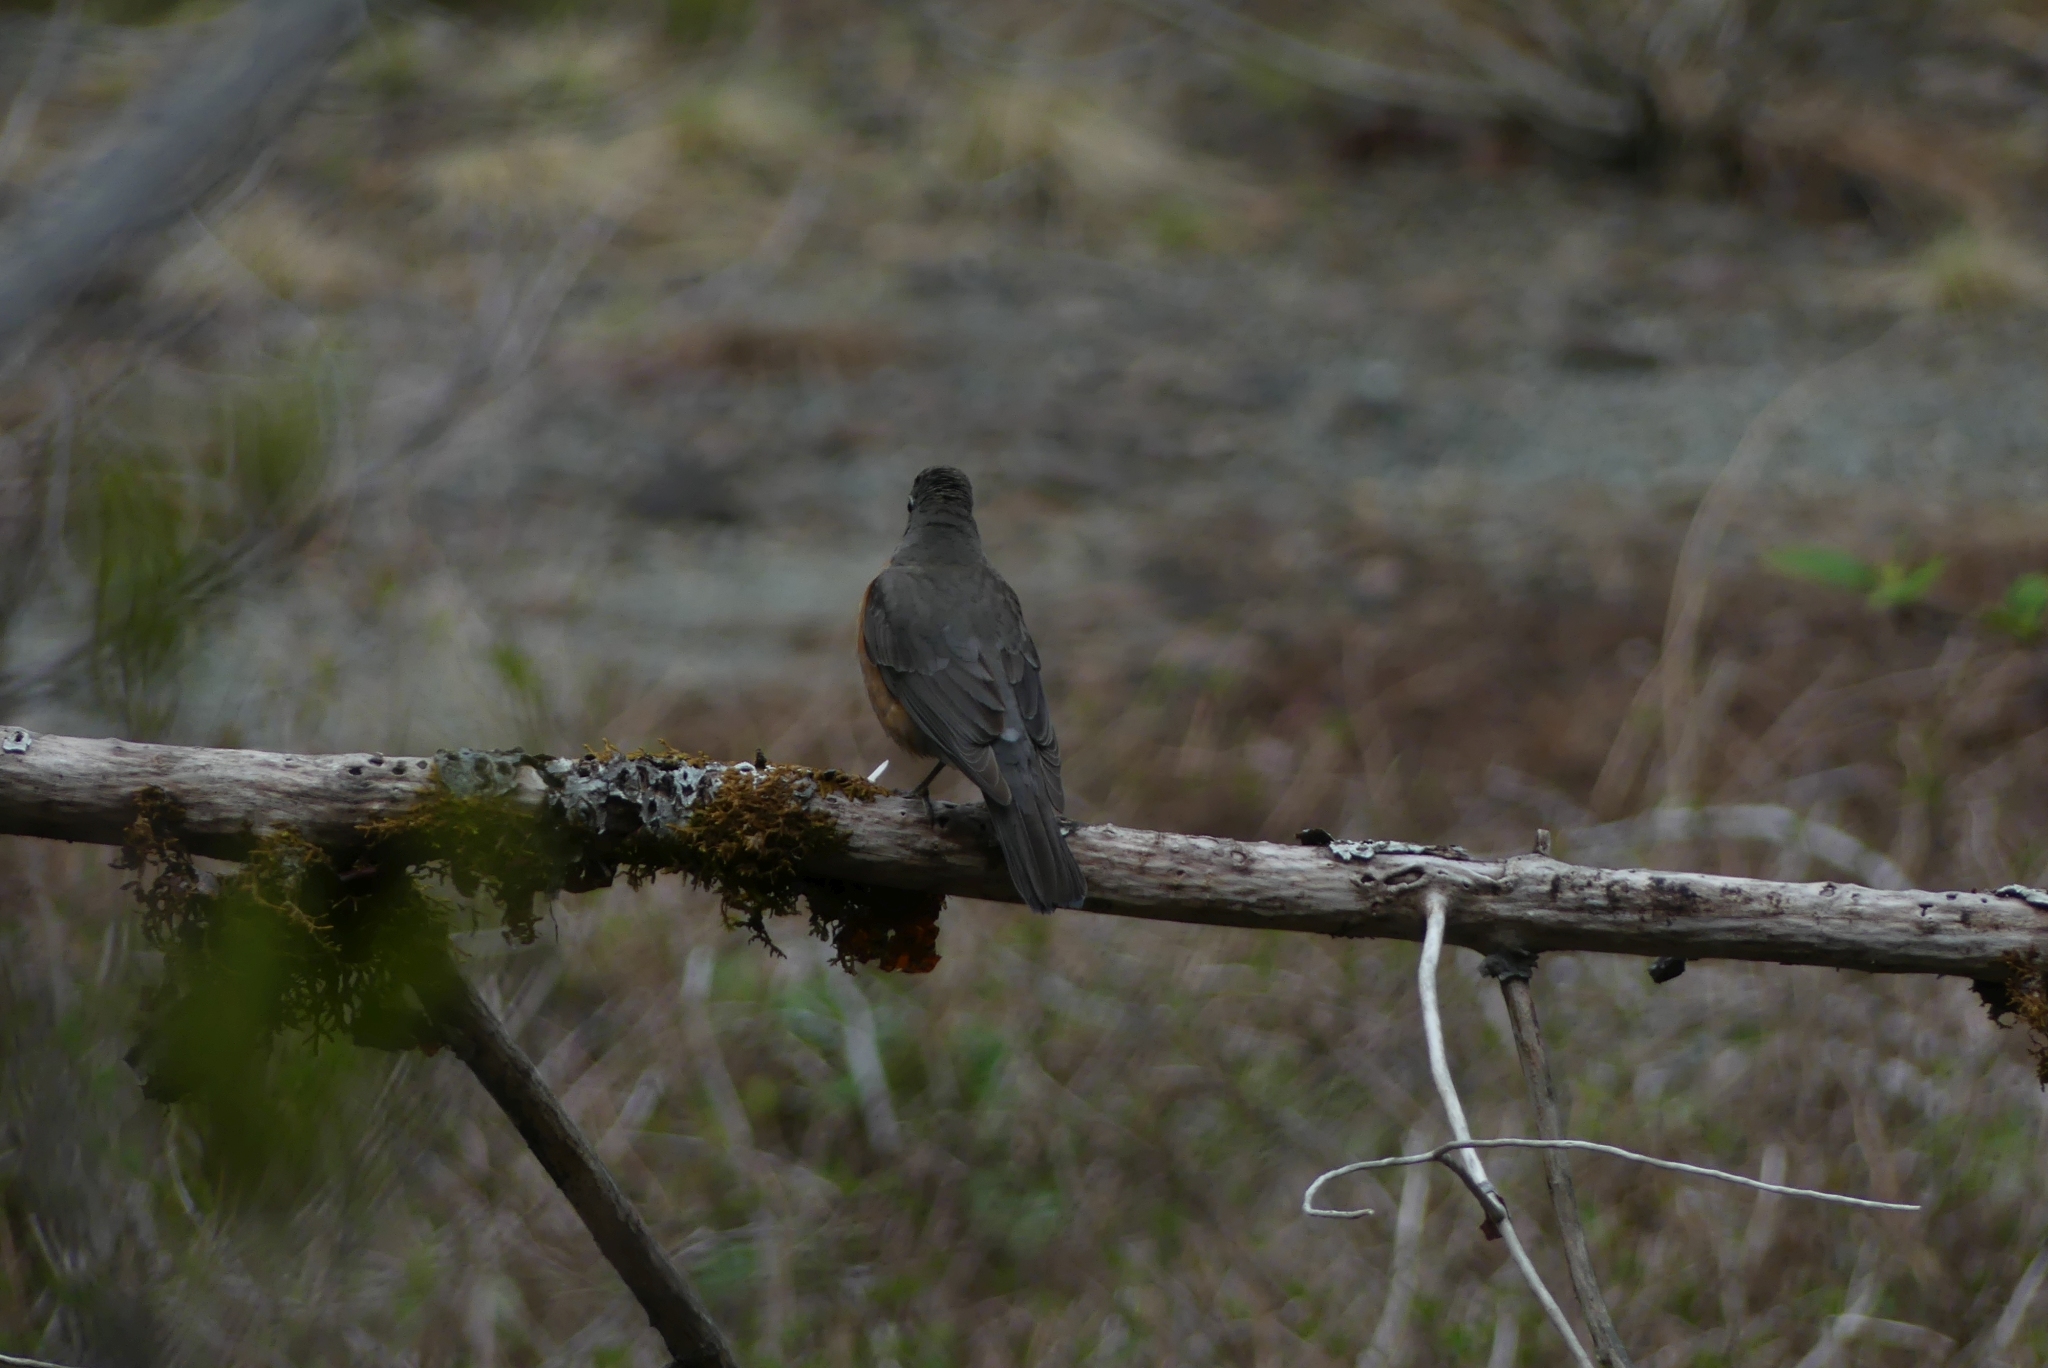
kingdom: Animalia
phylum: Chordata
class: Aves
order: Passeriformes
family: Turdidae
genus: Turdus
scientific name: Turdus migratorius
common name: American robin
